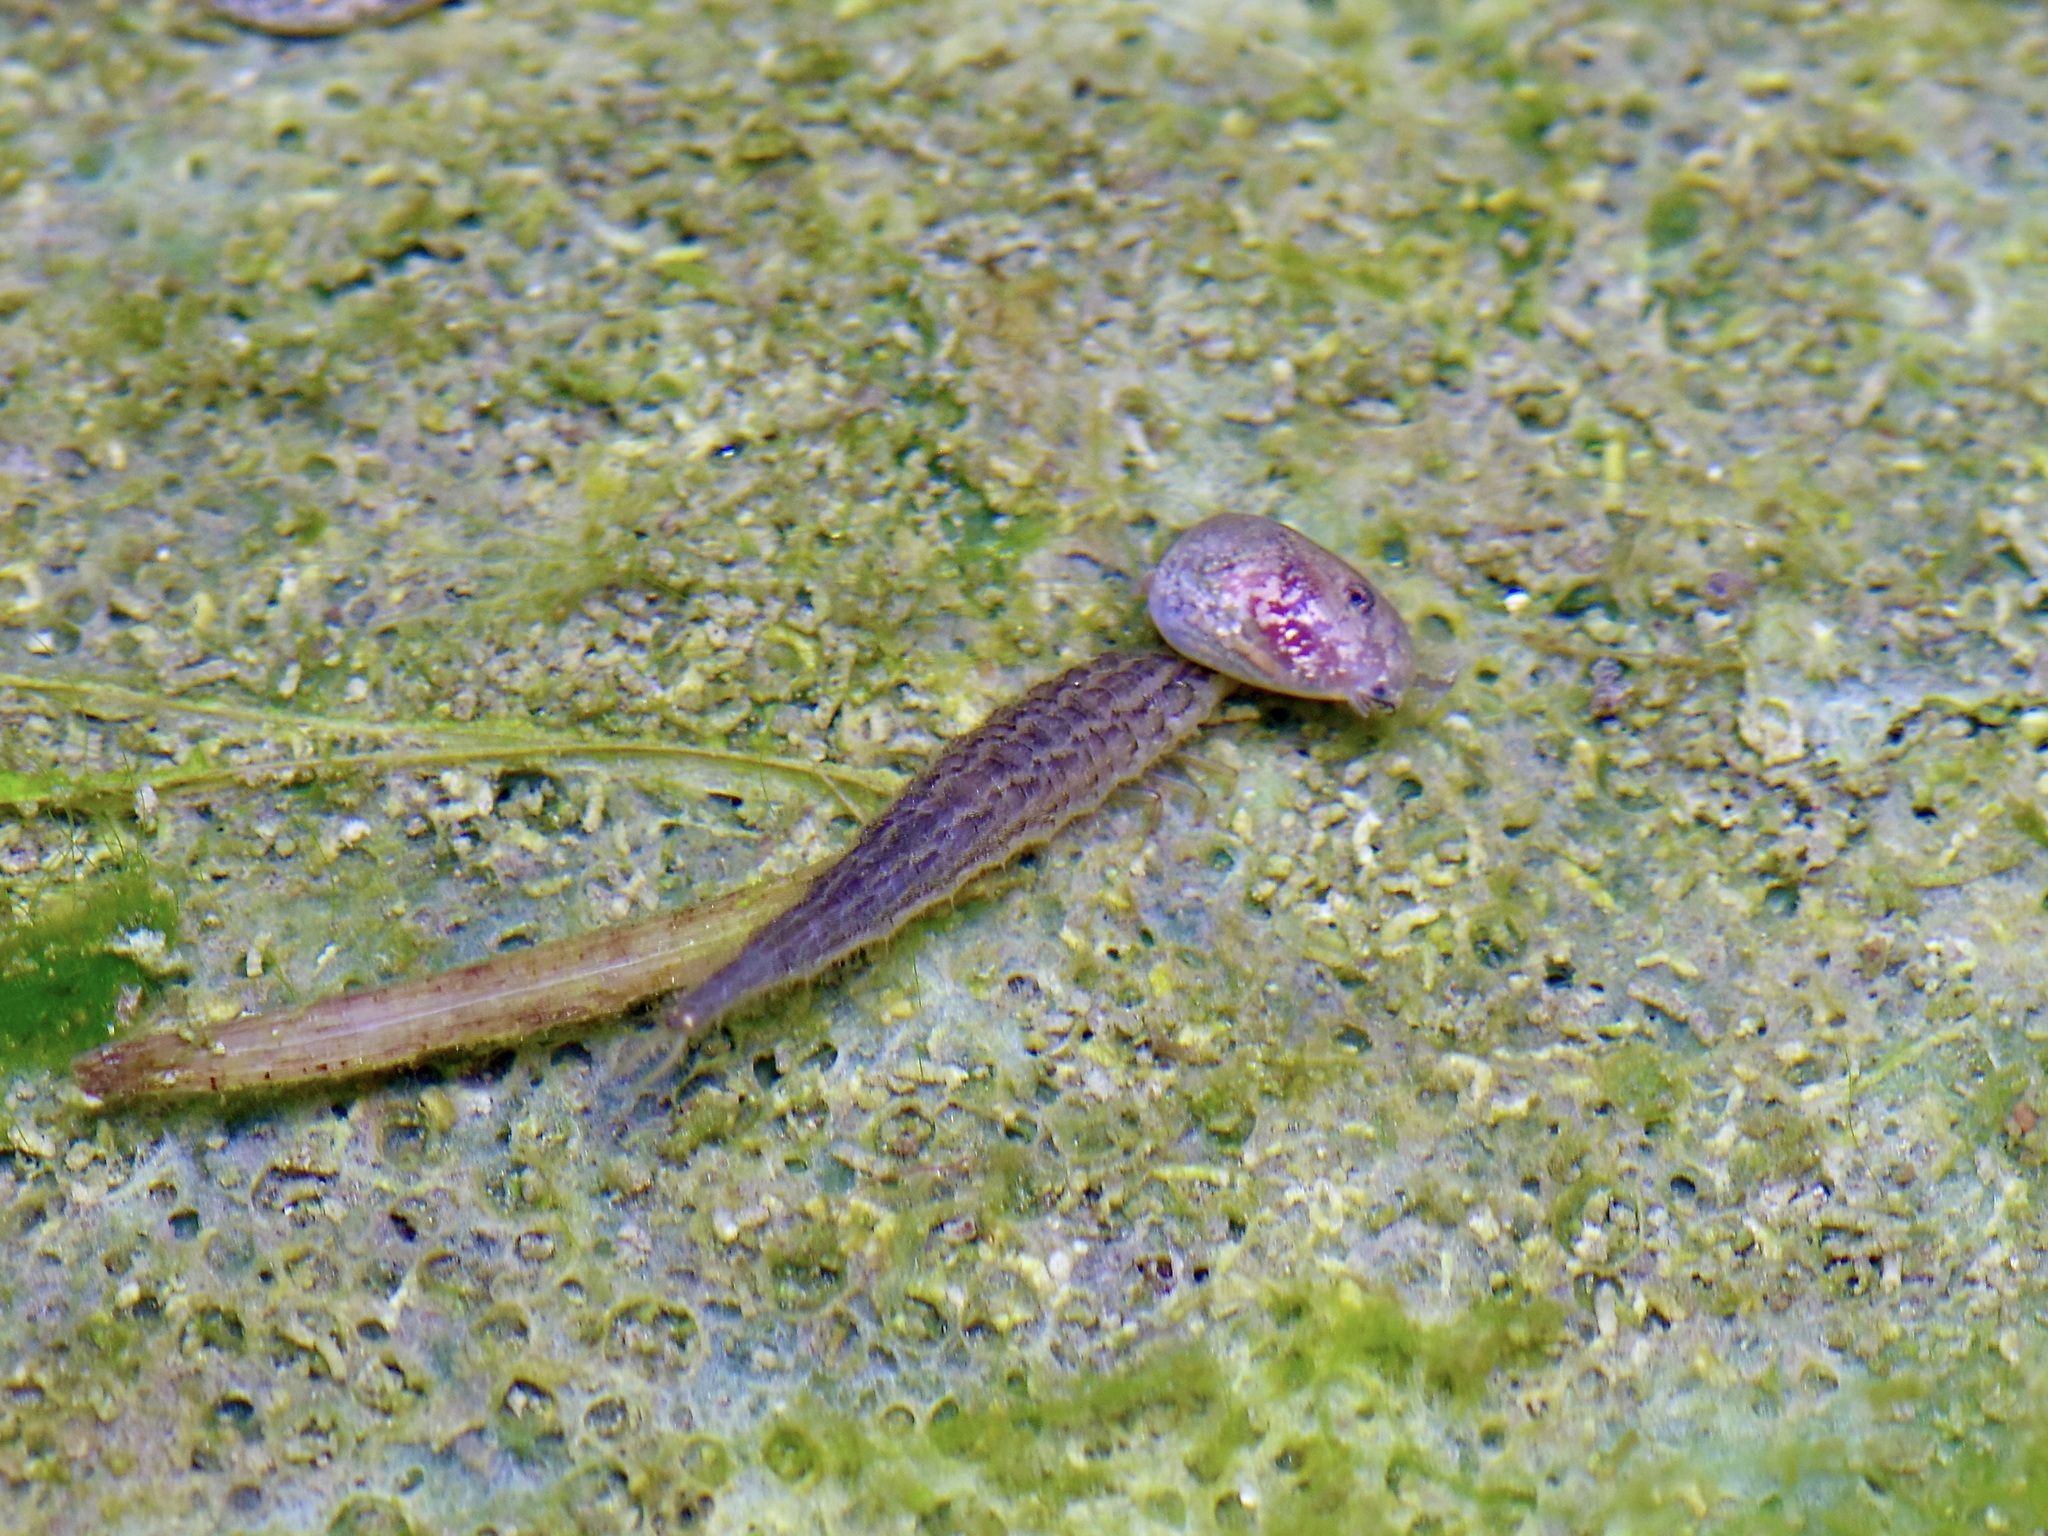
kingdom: Animalia
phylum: Arthropoda
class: Insecta
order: Coleoptera
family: Hydrophilidae
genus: Hydrophilus
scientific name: Hydrophilus
